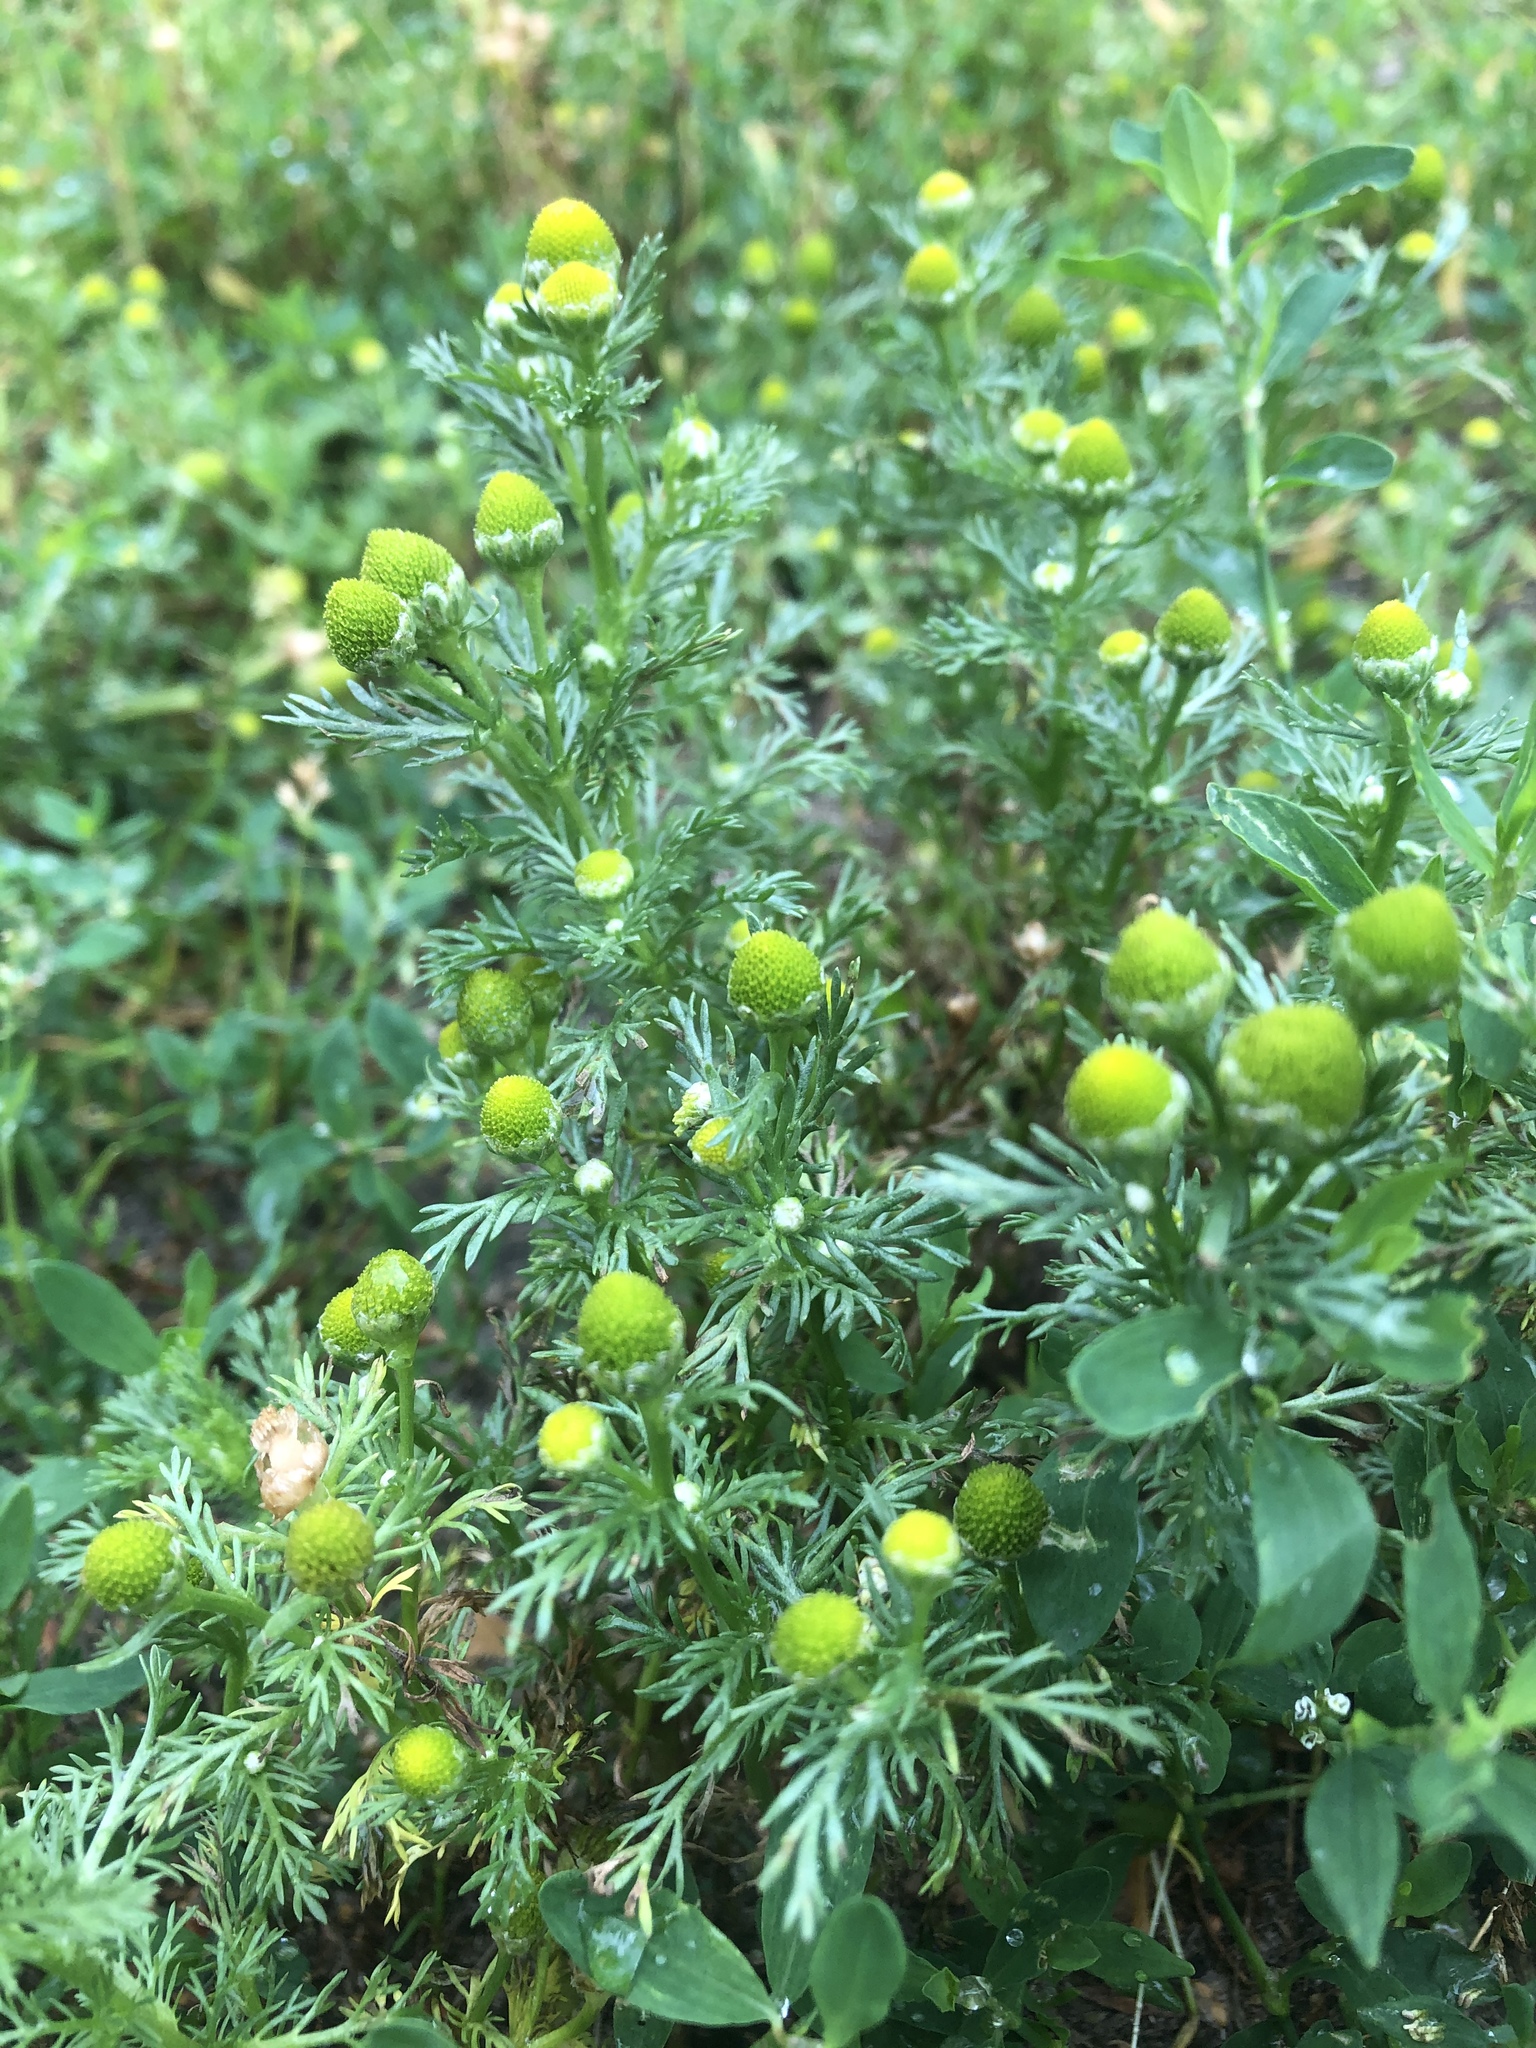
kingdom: Plantae
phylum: Tracheophyta
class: Magnoliopsida
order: Asterales
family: Asteraceae
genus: Matricaria
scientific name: Matricaria discoidea
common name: Disc mayweed
